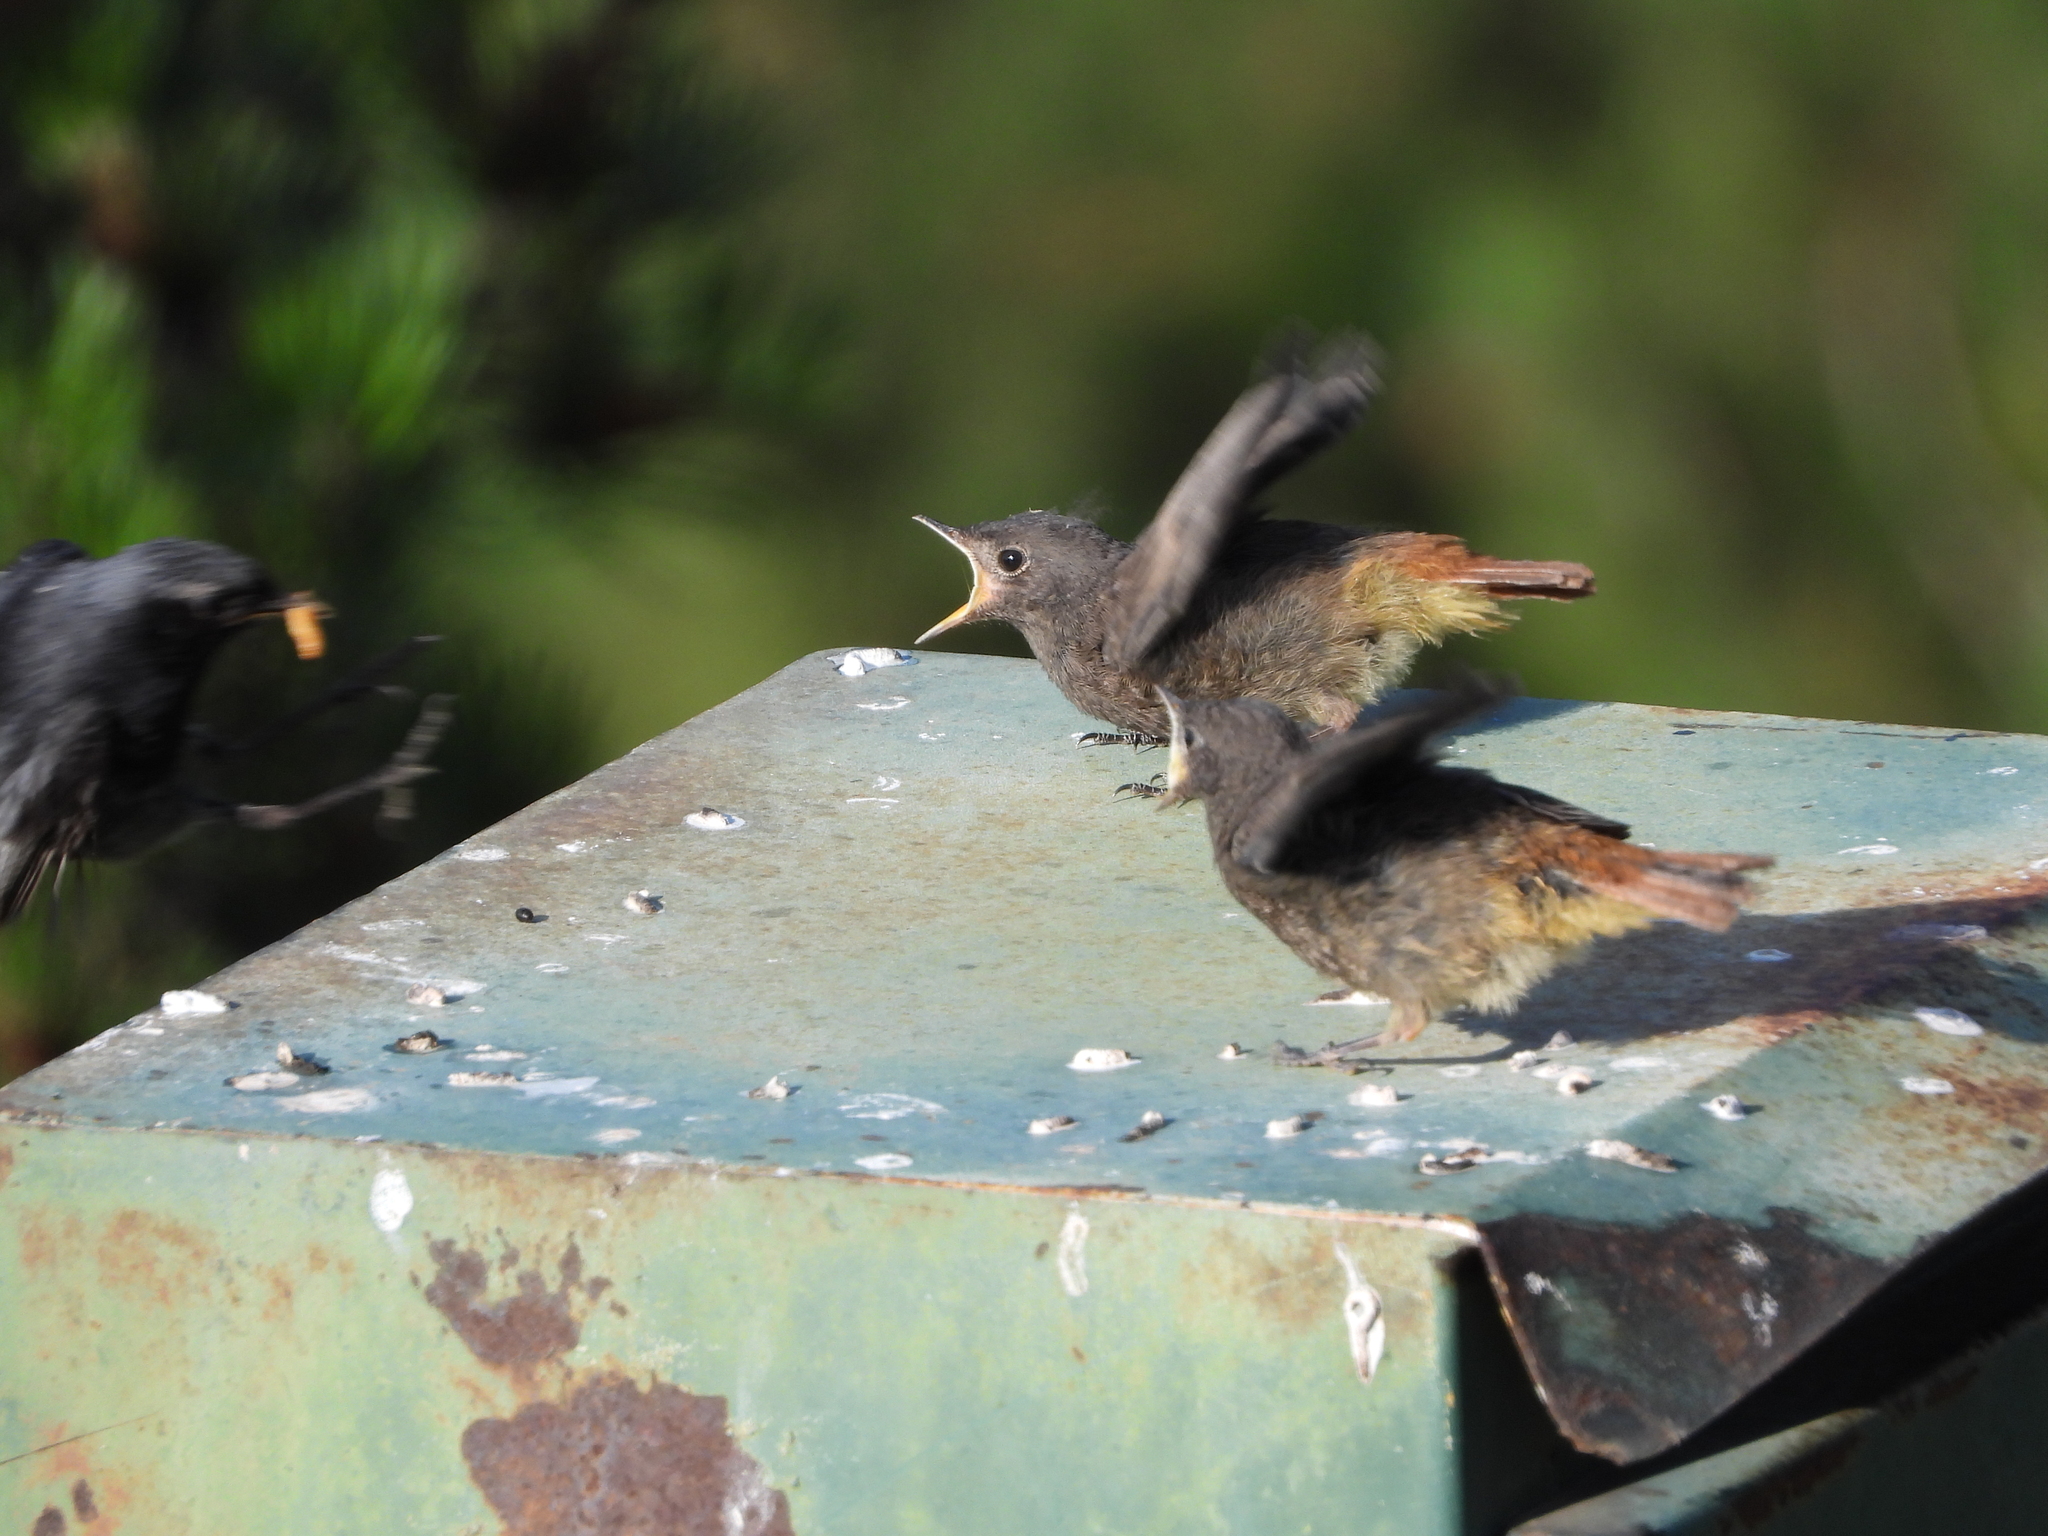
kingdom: Animalia
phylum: Chordata
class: Aves
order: Passeriformes
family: Muscicapidae
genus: Phoenicurus
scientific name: Phoenicurus ochruros
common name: Black redstart
